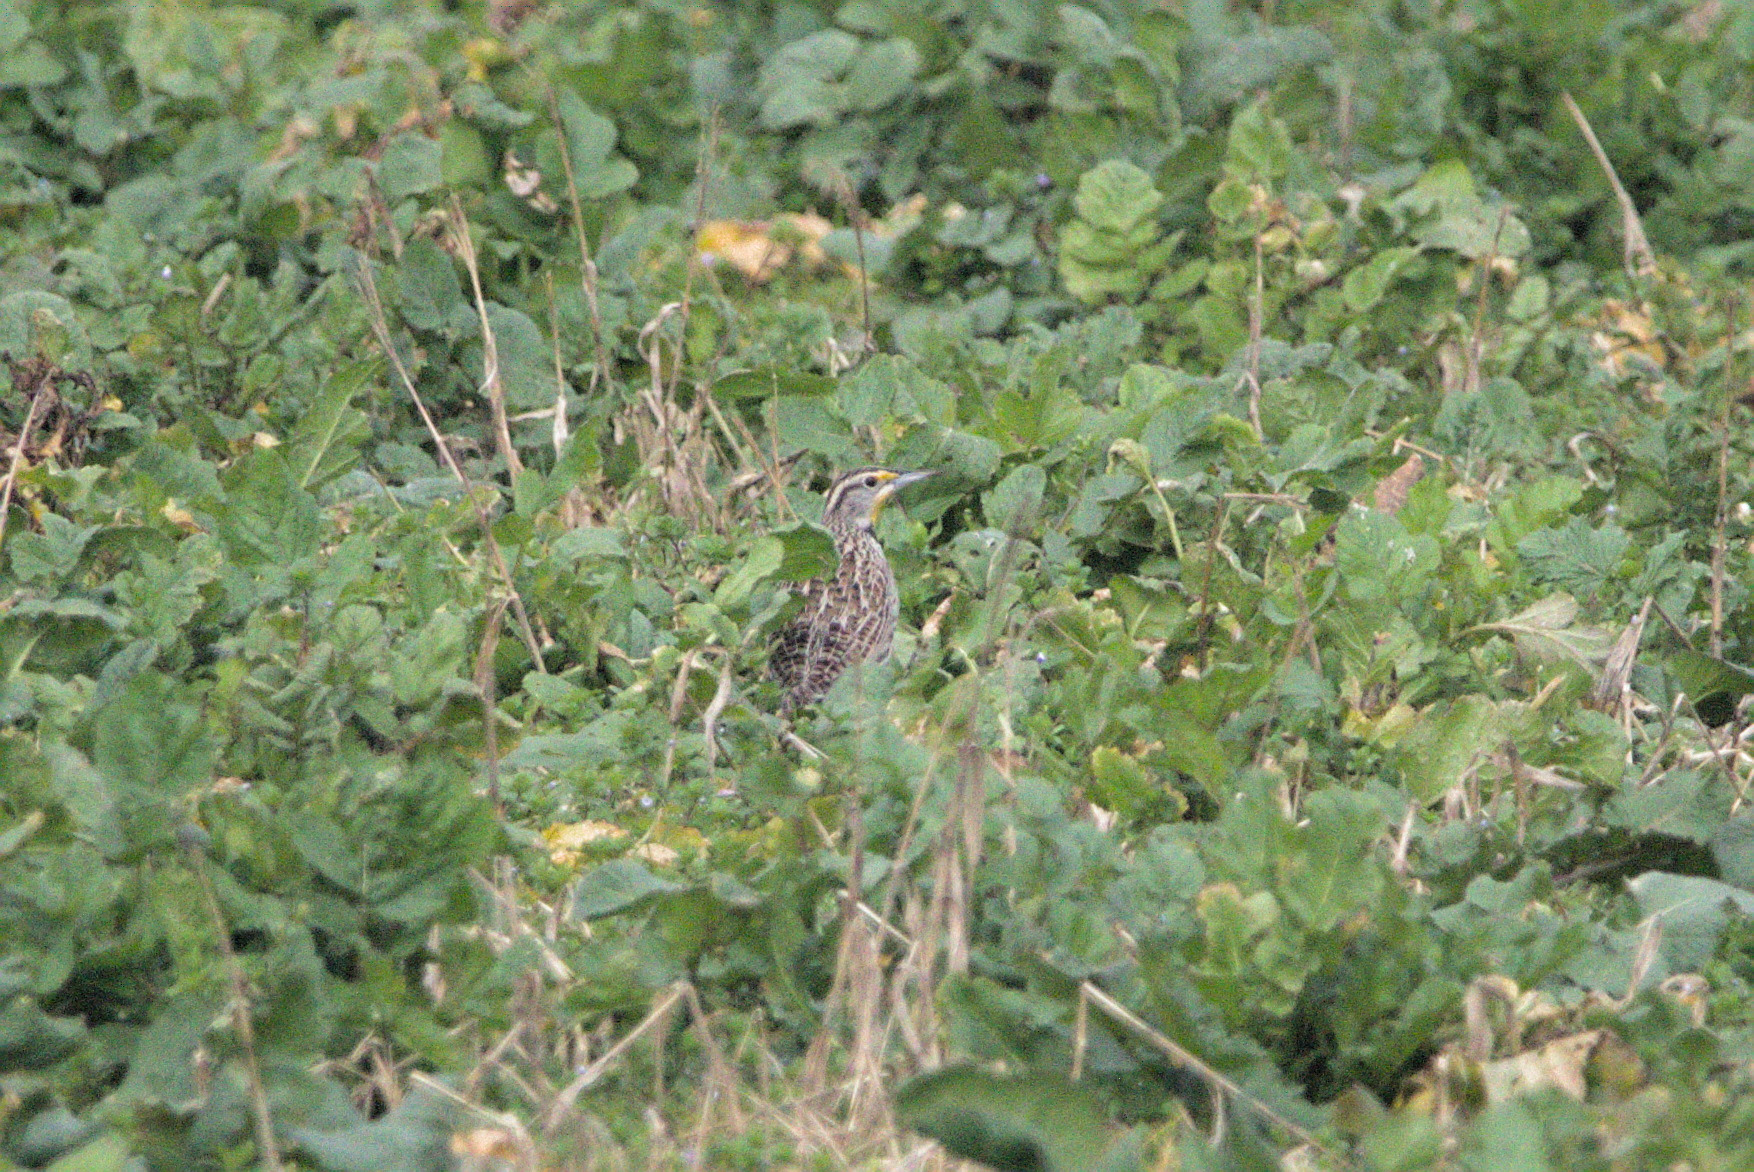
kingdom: Animalia
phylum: Chordata
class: Aves
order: Passeriformes
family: Icteridae
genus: Sturnella
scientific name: Sturnella neglecta
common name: Western meadowlark
